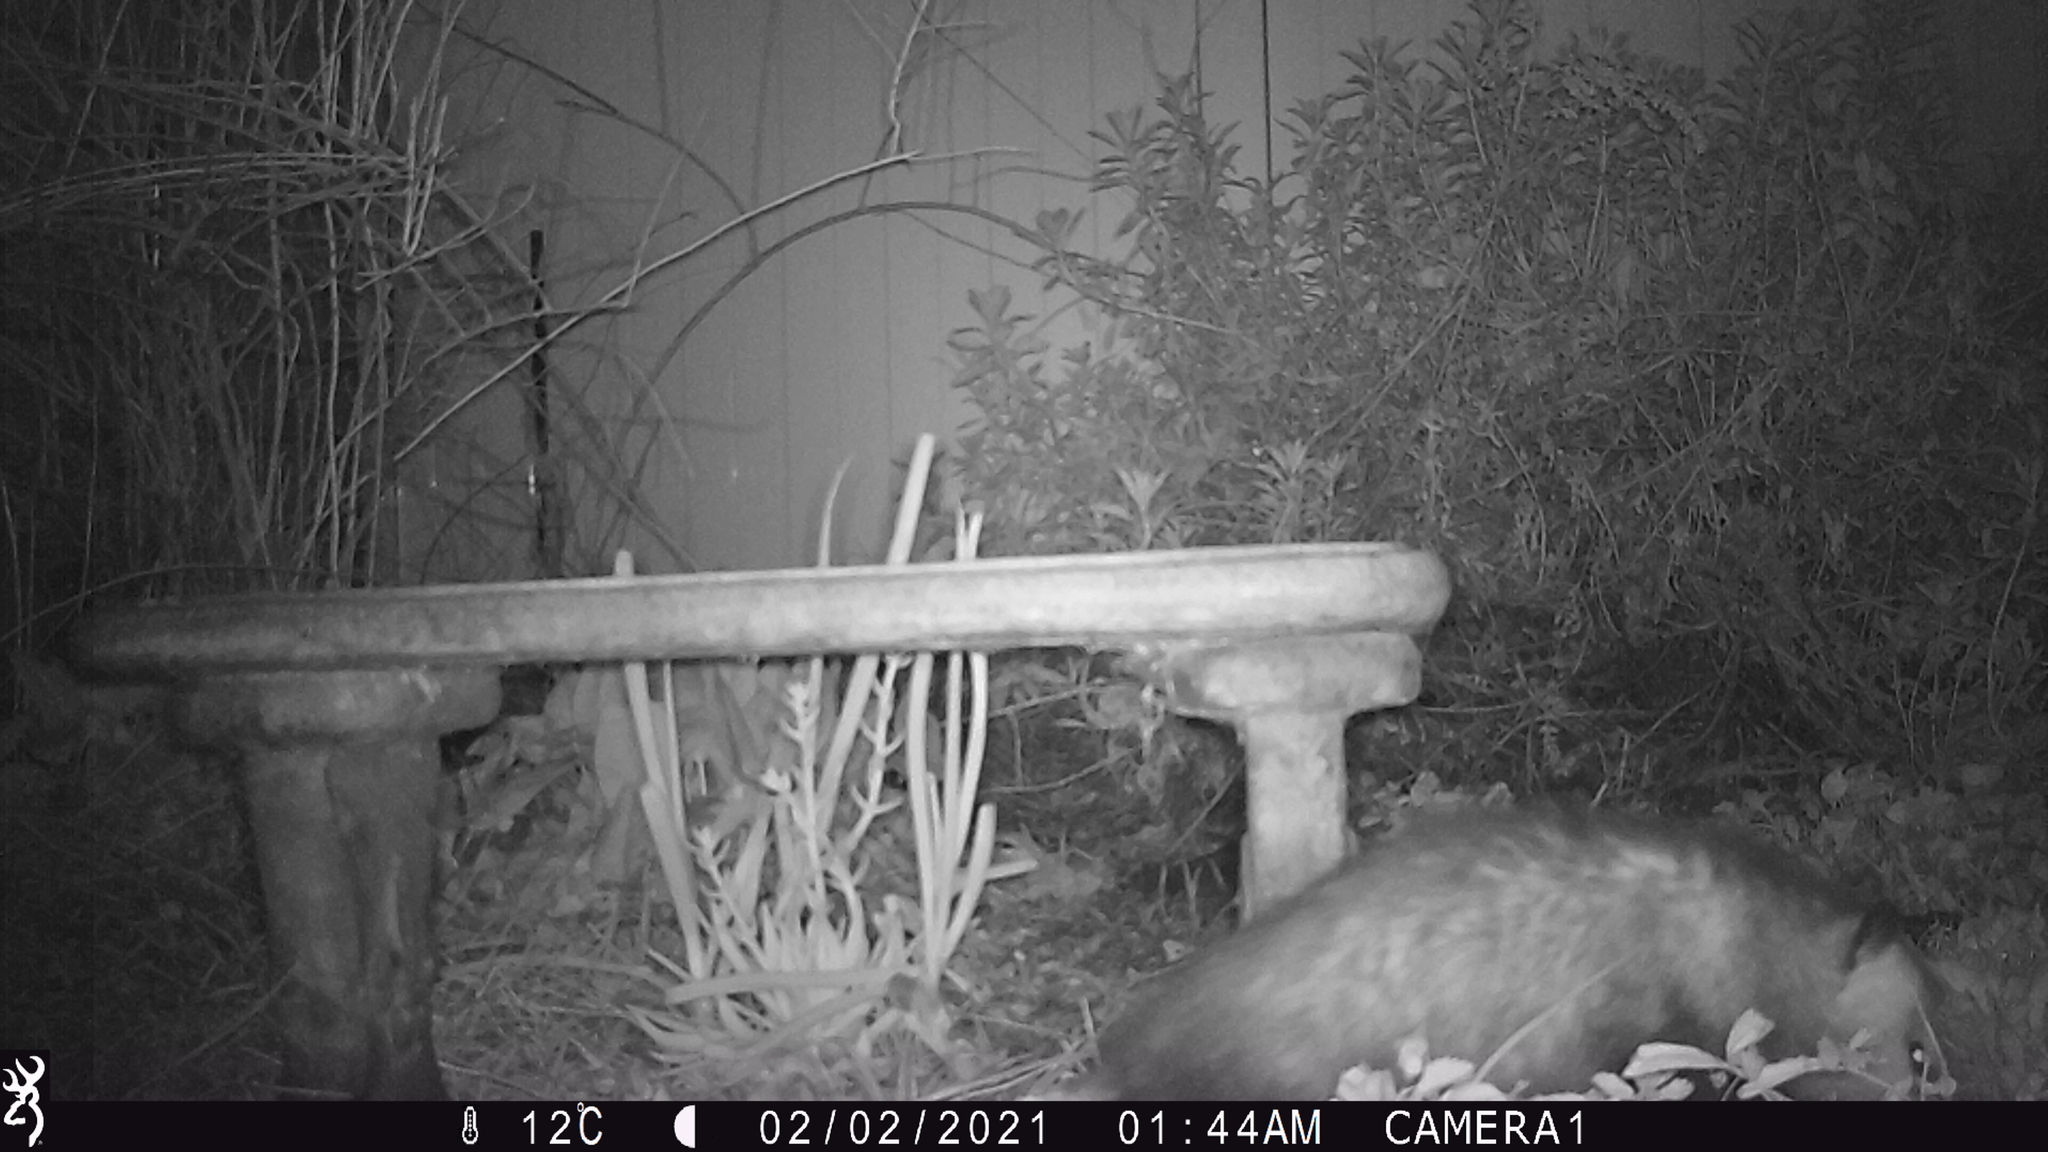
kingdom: Animalia
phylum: Chordata
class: Mammalia
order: Didelphimorphia
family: Didelphidae
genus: Didelphis
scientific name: Didelphis virginiana
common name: Virginia opossum
